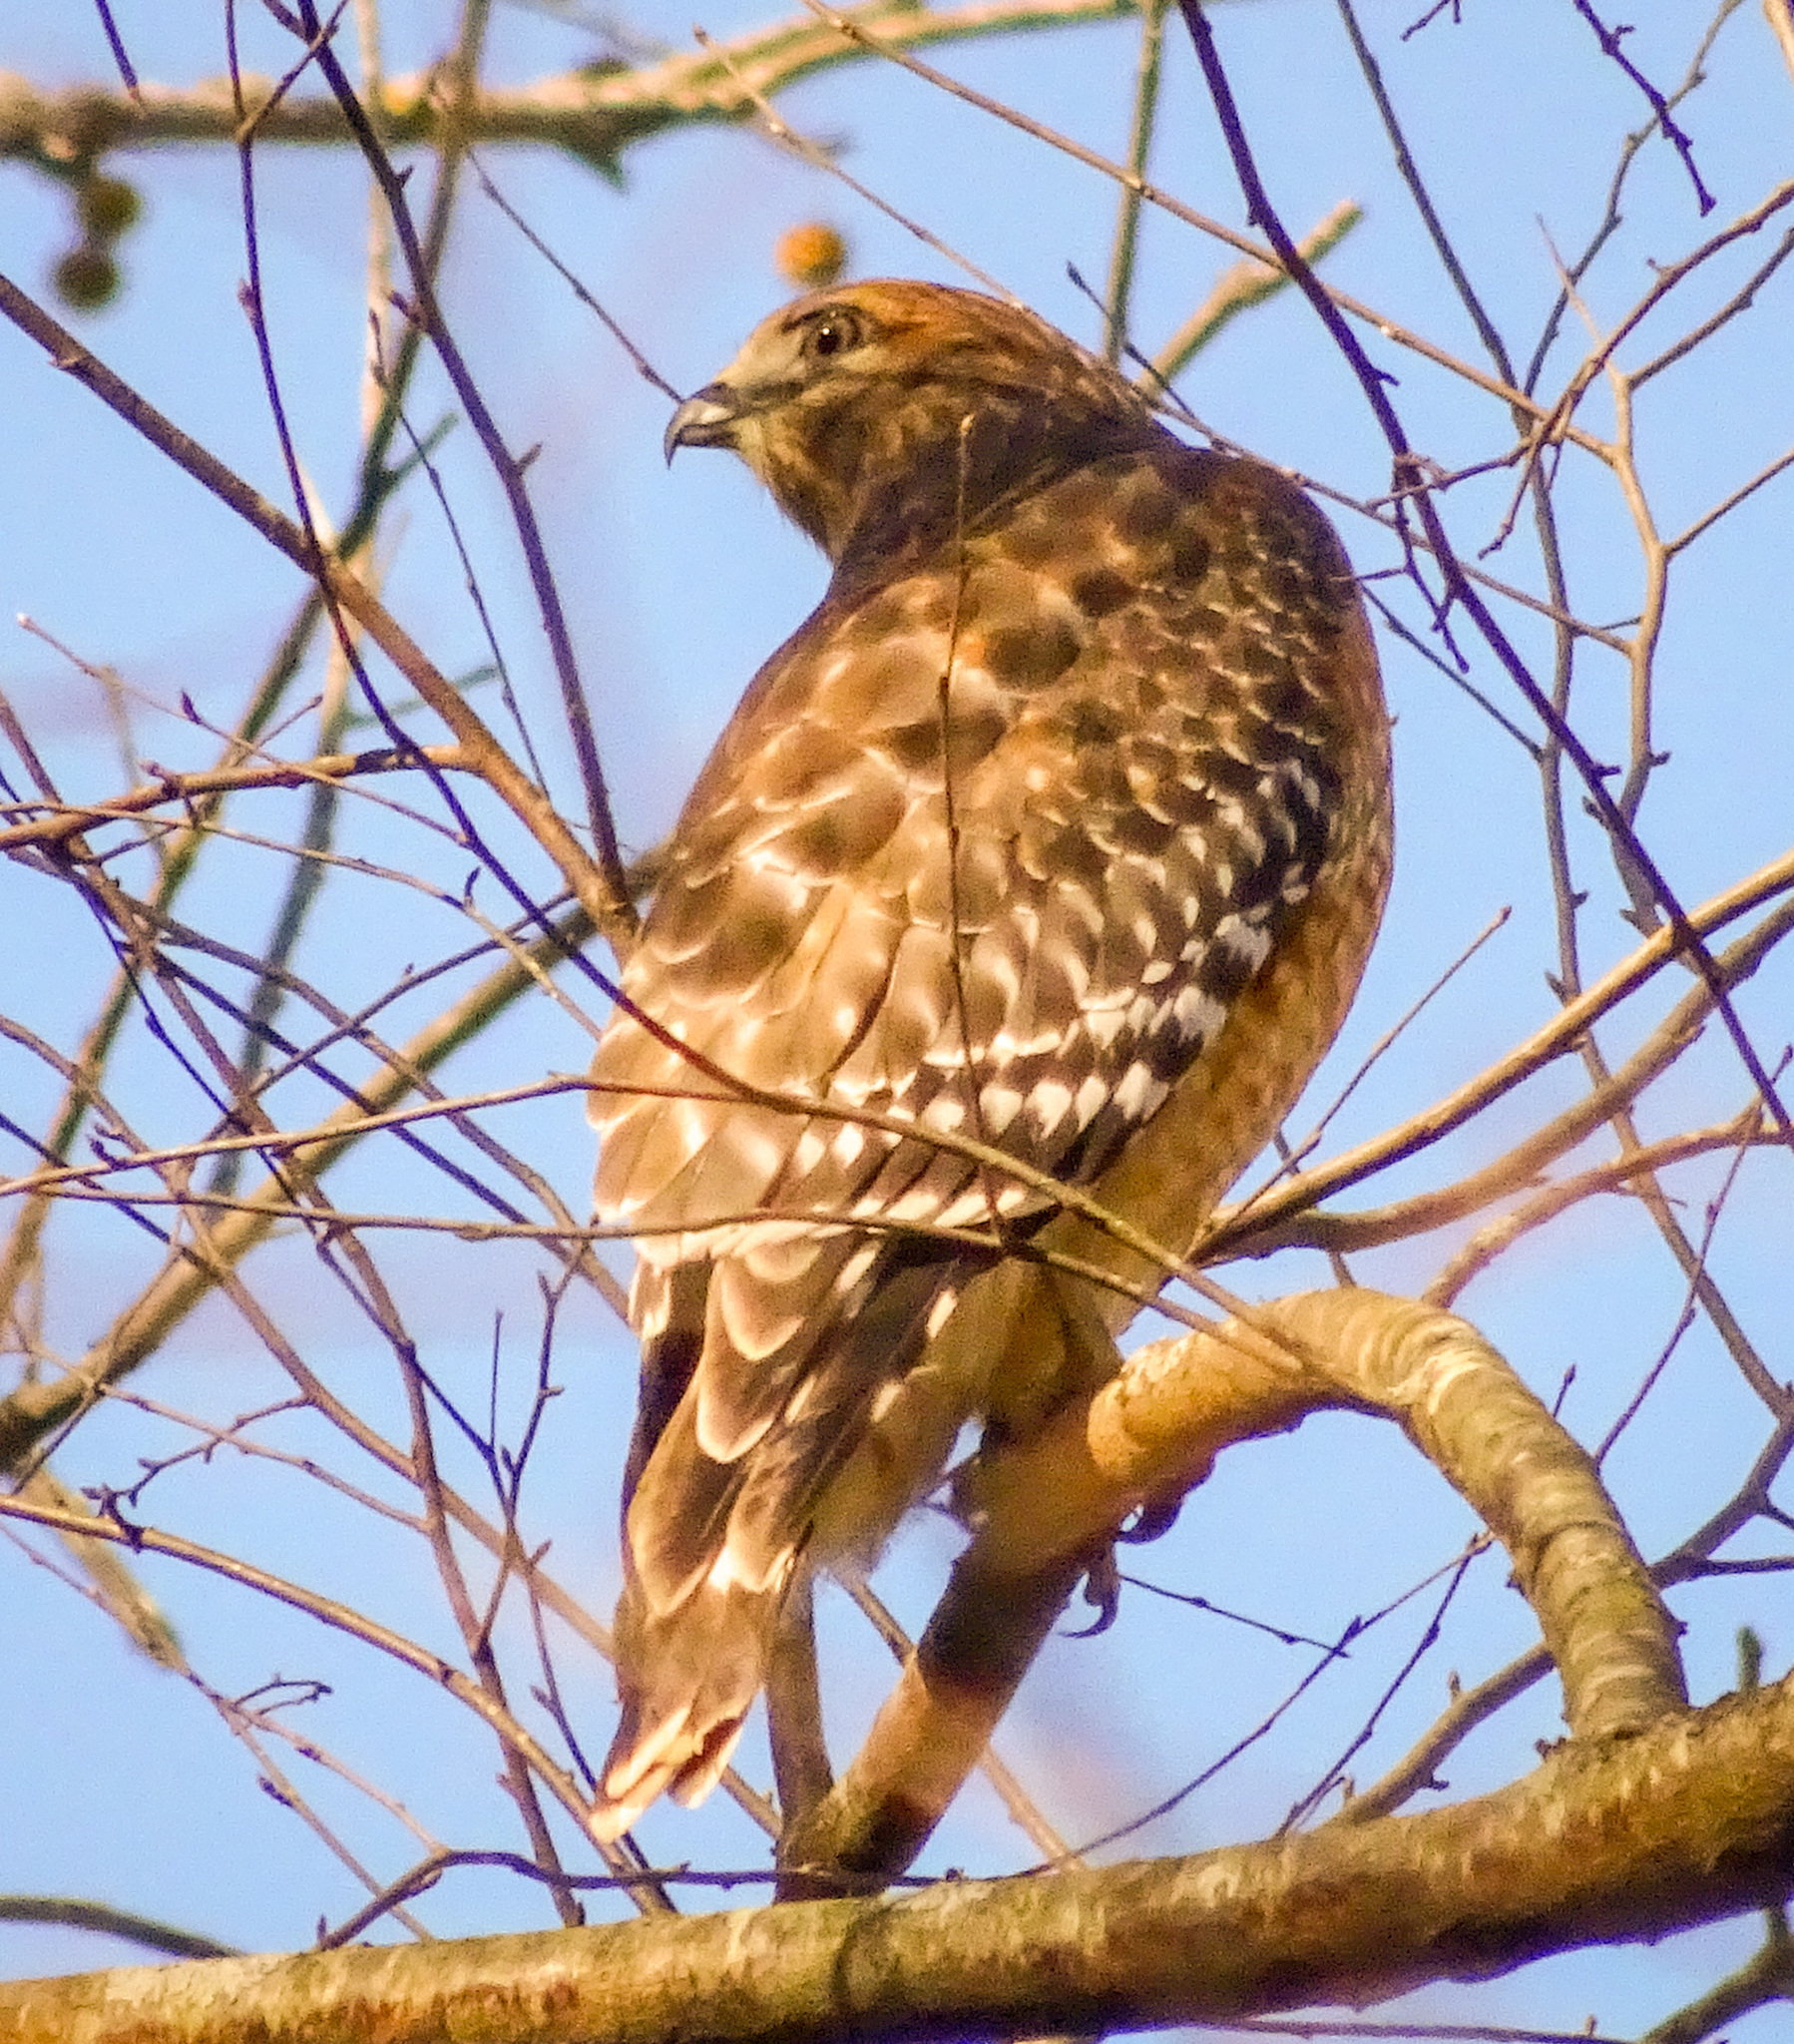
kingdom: Animalia
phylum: Chordata
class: Aves
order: Accipitriformes
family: Accipitridae
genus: Buteo
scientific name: Buteo lineatus
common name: Red-shouldered hawk
